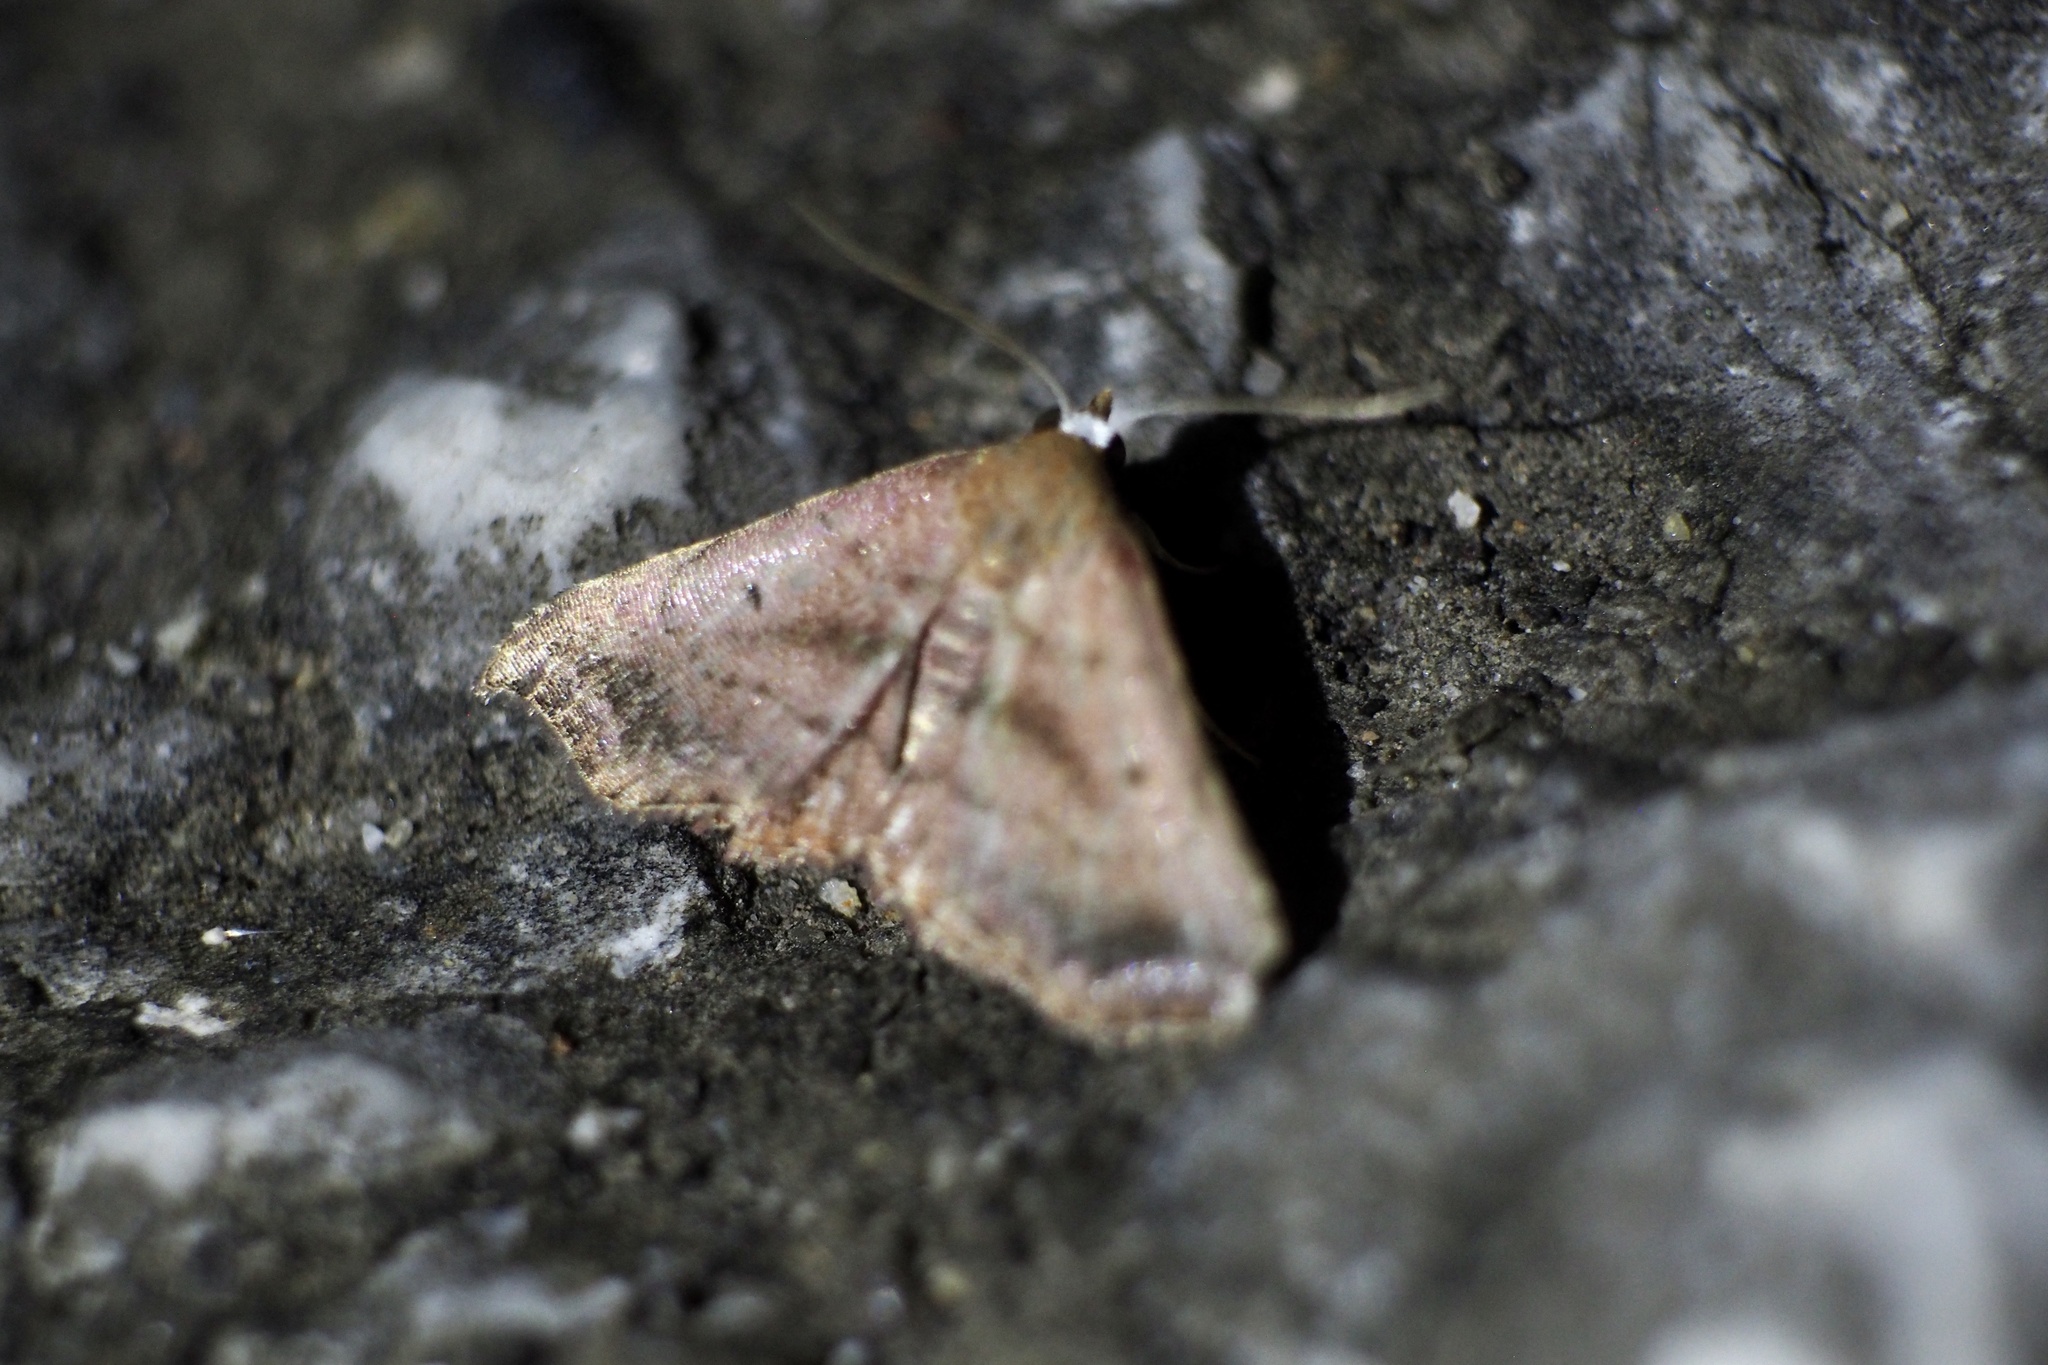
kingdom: Animalia
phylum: Arthropoda
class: Insecta
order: Lepidoptera
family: Erebidae
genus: Corgatha
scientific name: Corgatha nitens
